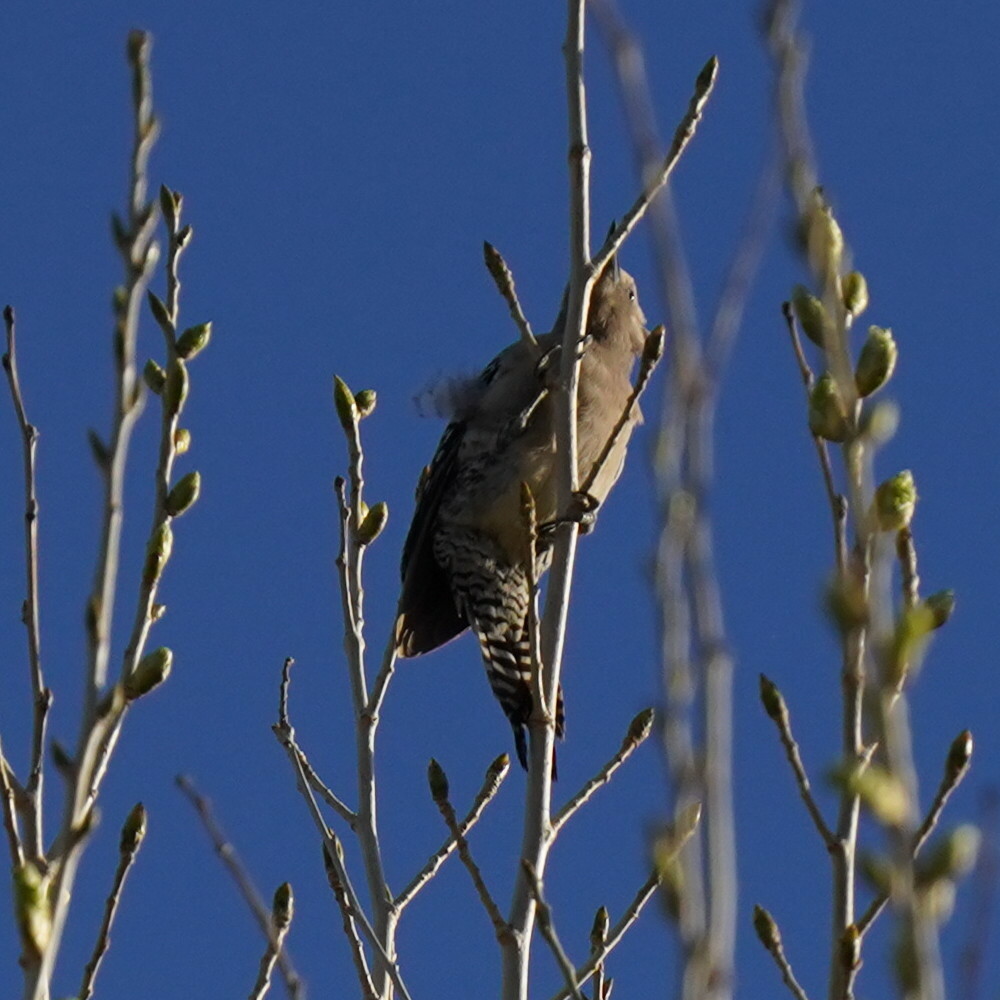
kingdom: Animalia
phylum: Chordata
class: Aves
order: Piciformes
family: Picidae
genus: Melanerpes
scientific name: Melanerpes uropygialis
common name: Gila woodpecker
